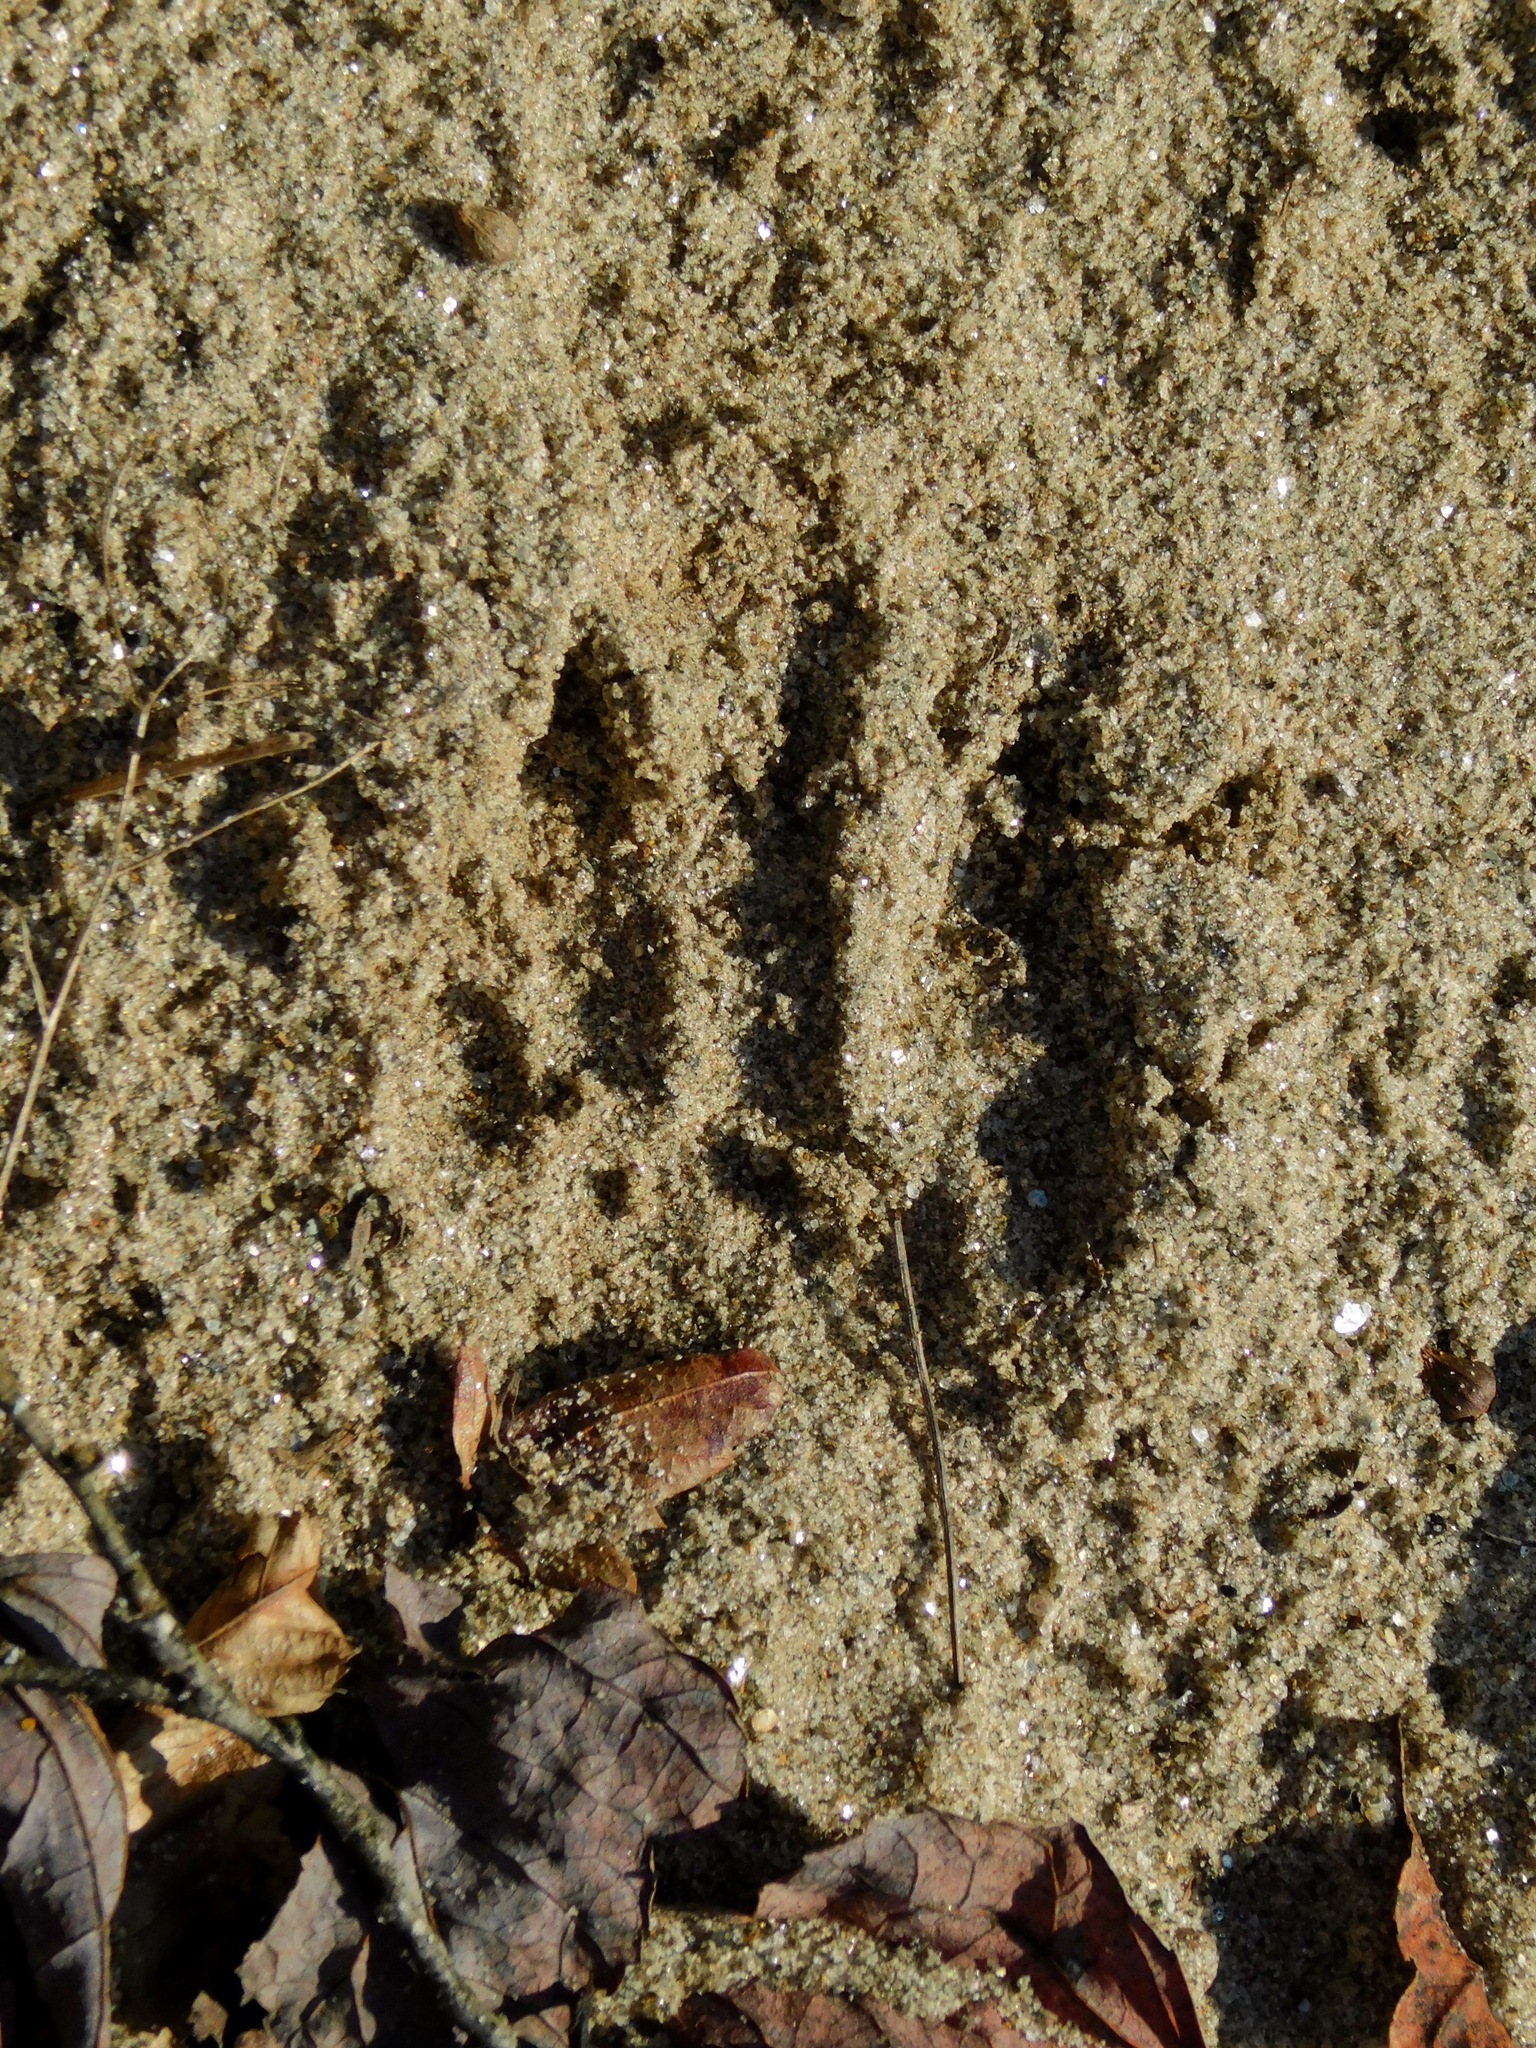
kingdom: Animalia
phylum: Chordata
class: Mammalia
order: Carnivora
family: Procyonidae
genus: Procyon
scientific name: Procyon lotor
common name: Raccoon
